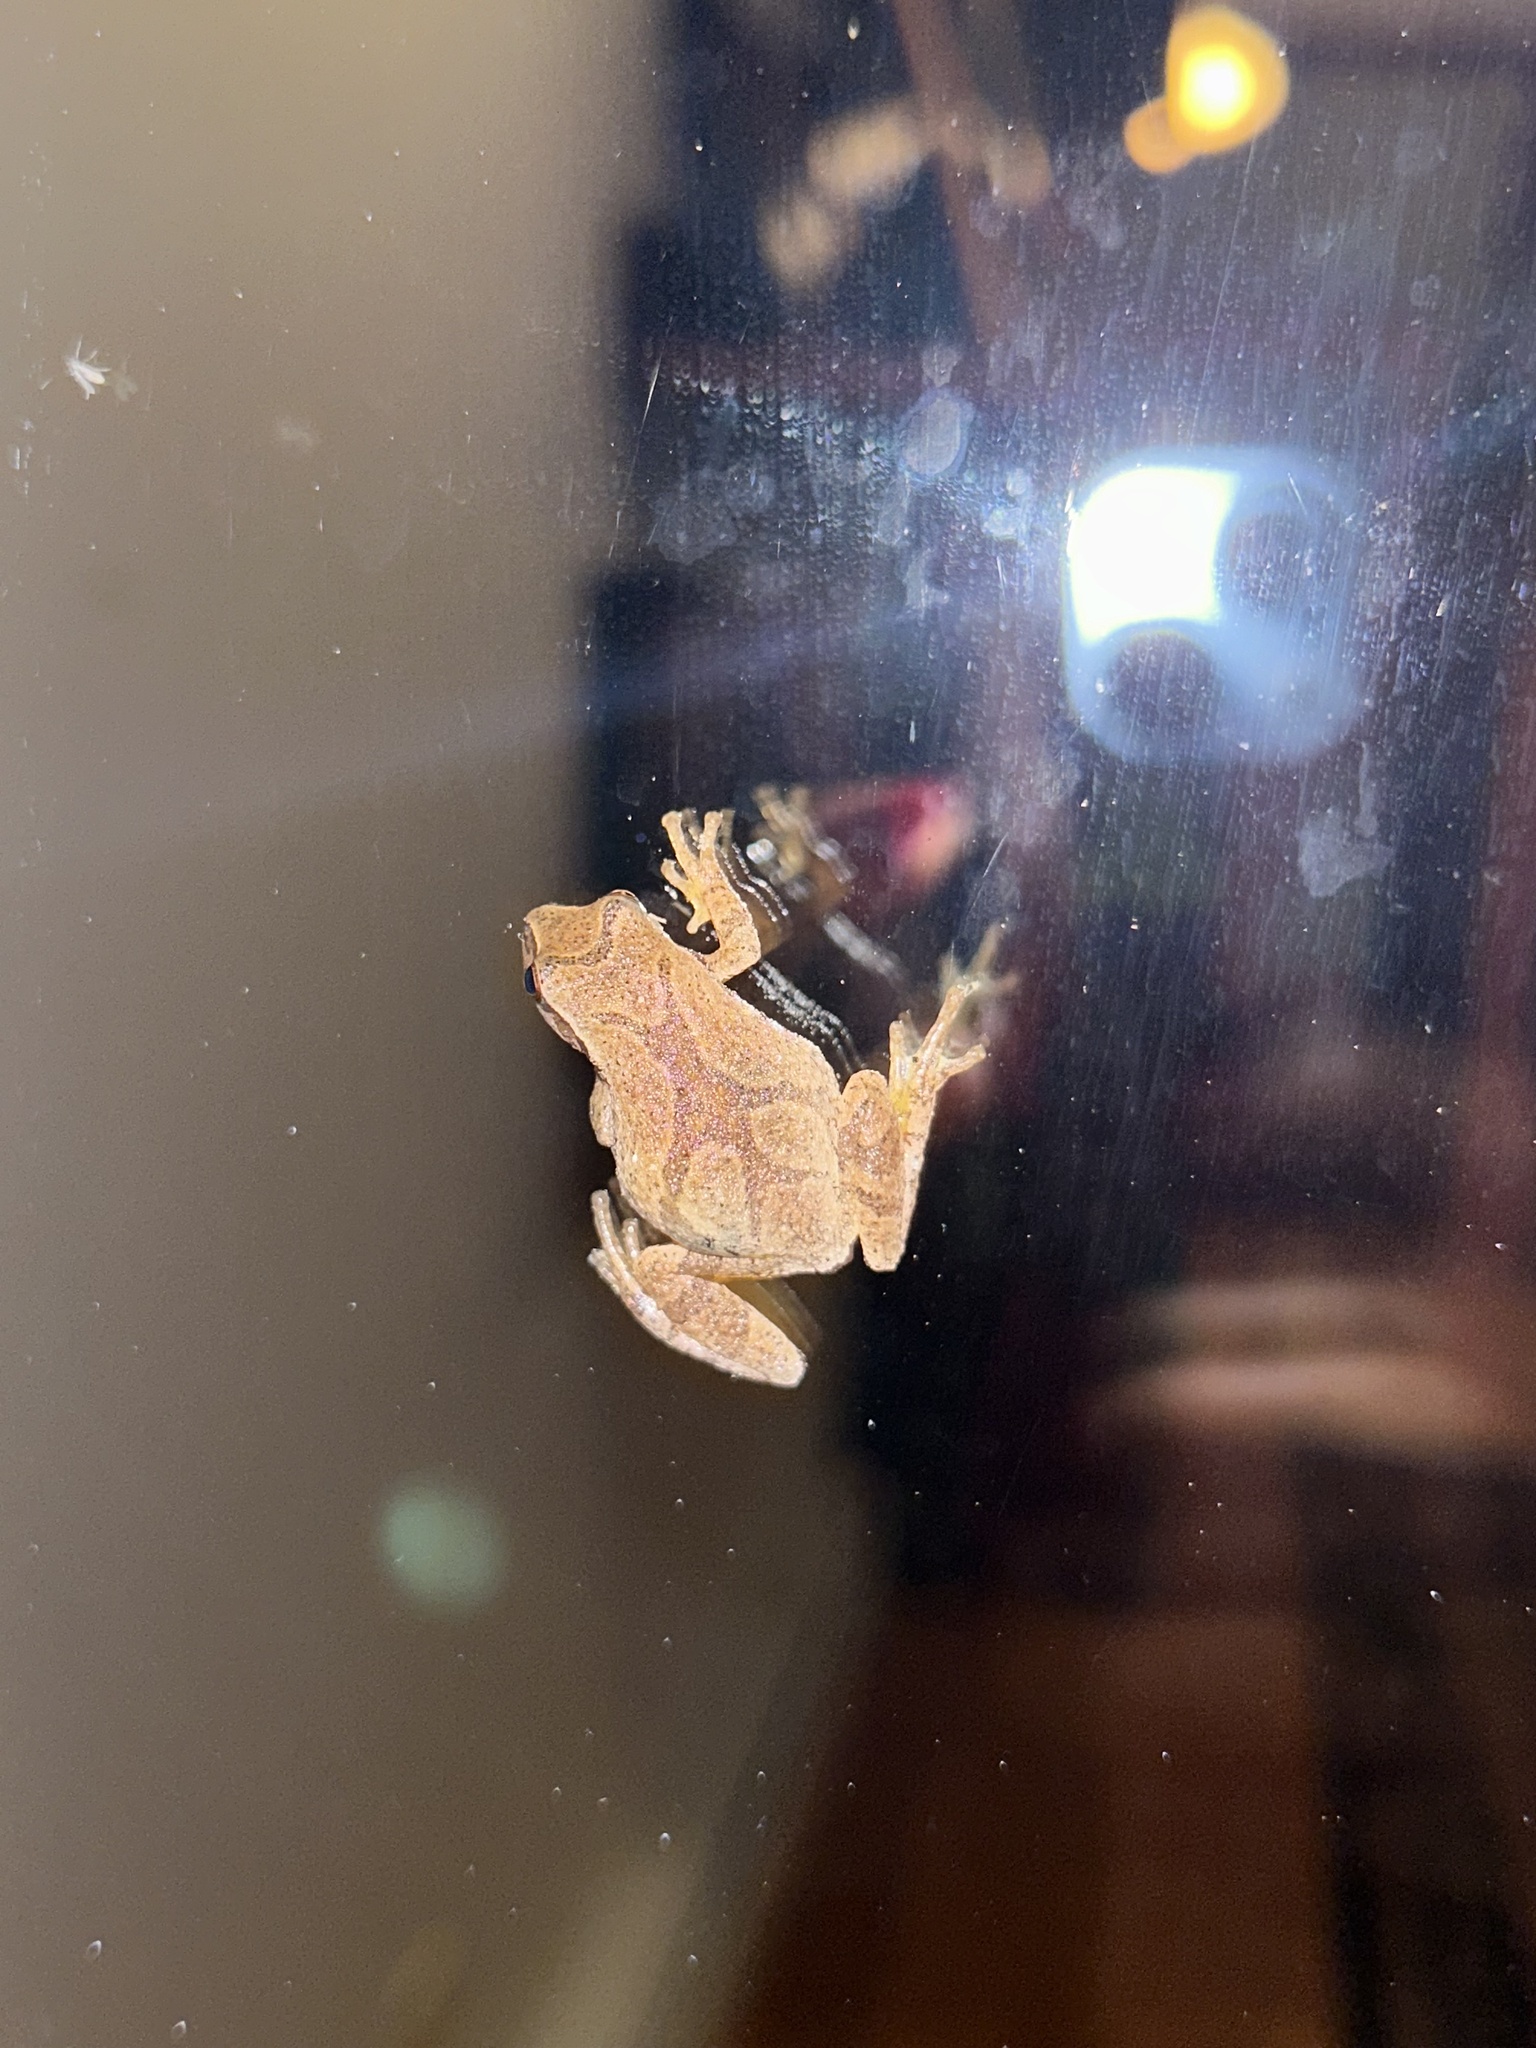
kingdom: Animalia
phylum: Chordata
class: Amphibia
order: Anura
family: Hylidae
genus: Pseudacris
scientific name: Pseudacris crucifer
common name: Spring peeper
